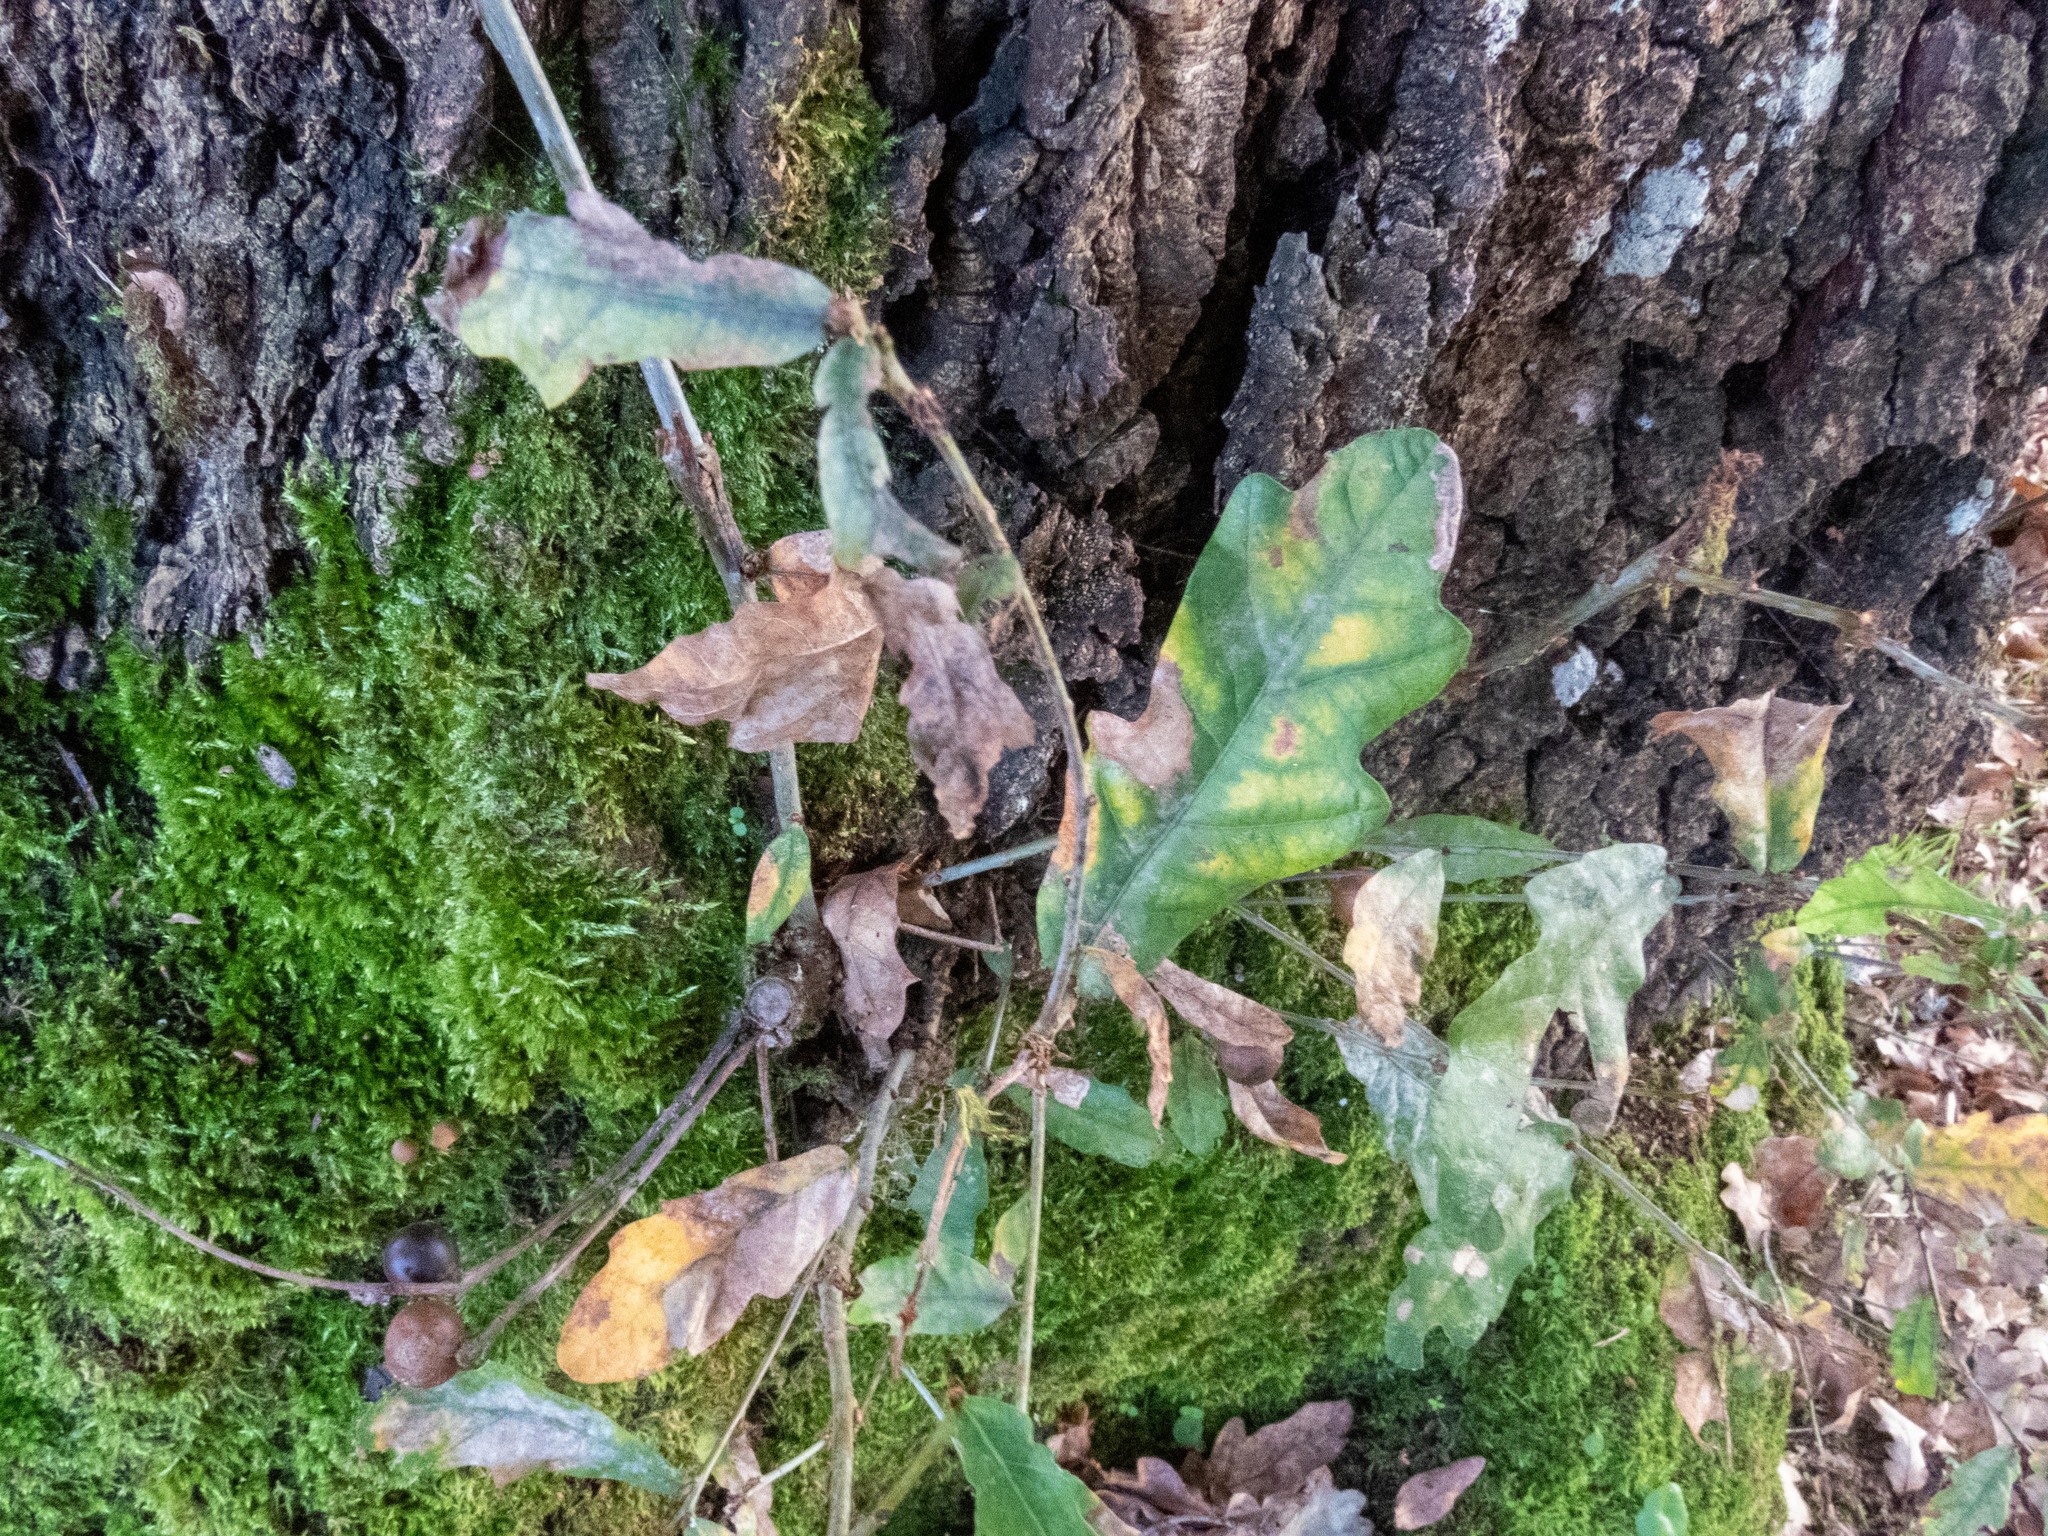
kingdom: Animalia
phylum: Arthropoda
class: Insecta
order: Hymenoptera
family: Cynipidae
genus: Andricus
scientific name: Andricus kollari
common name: Marble gall
